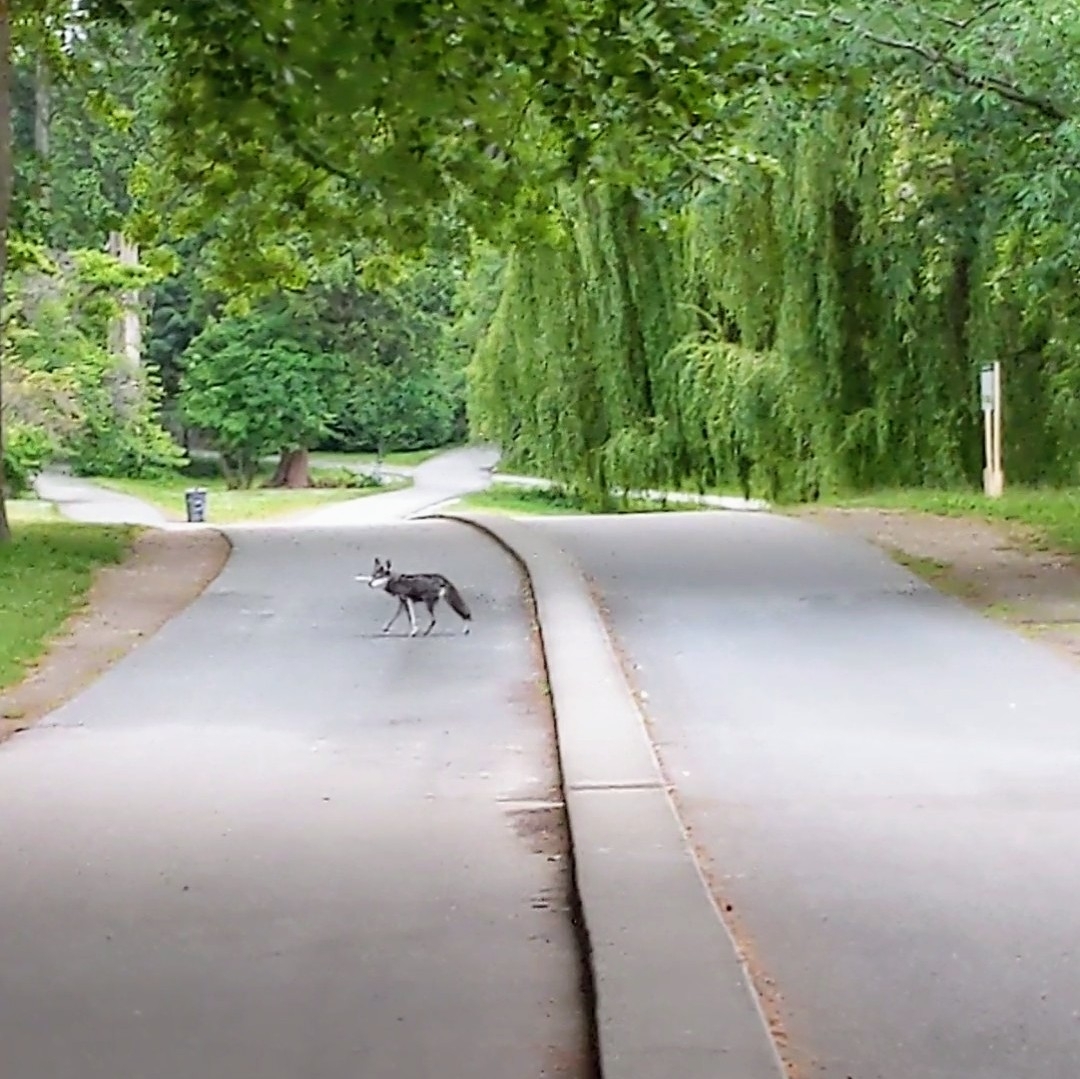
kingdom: Animalia
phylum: Chordata
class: Mammalia
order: Carnivora
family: Canidae
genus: Canis
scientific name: Canis latrans
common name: Coyote
